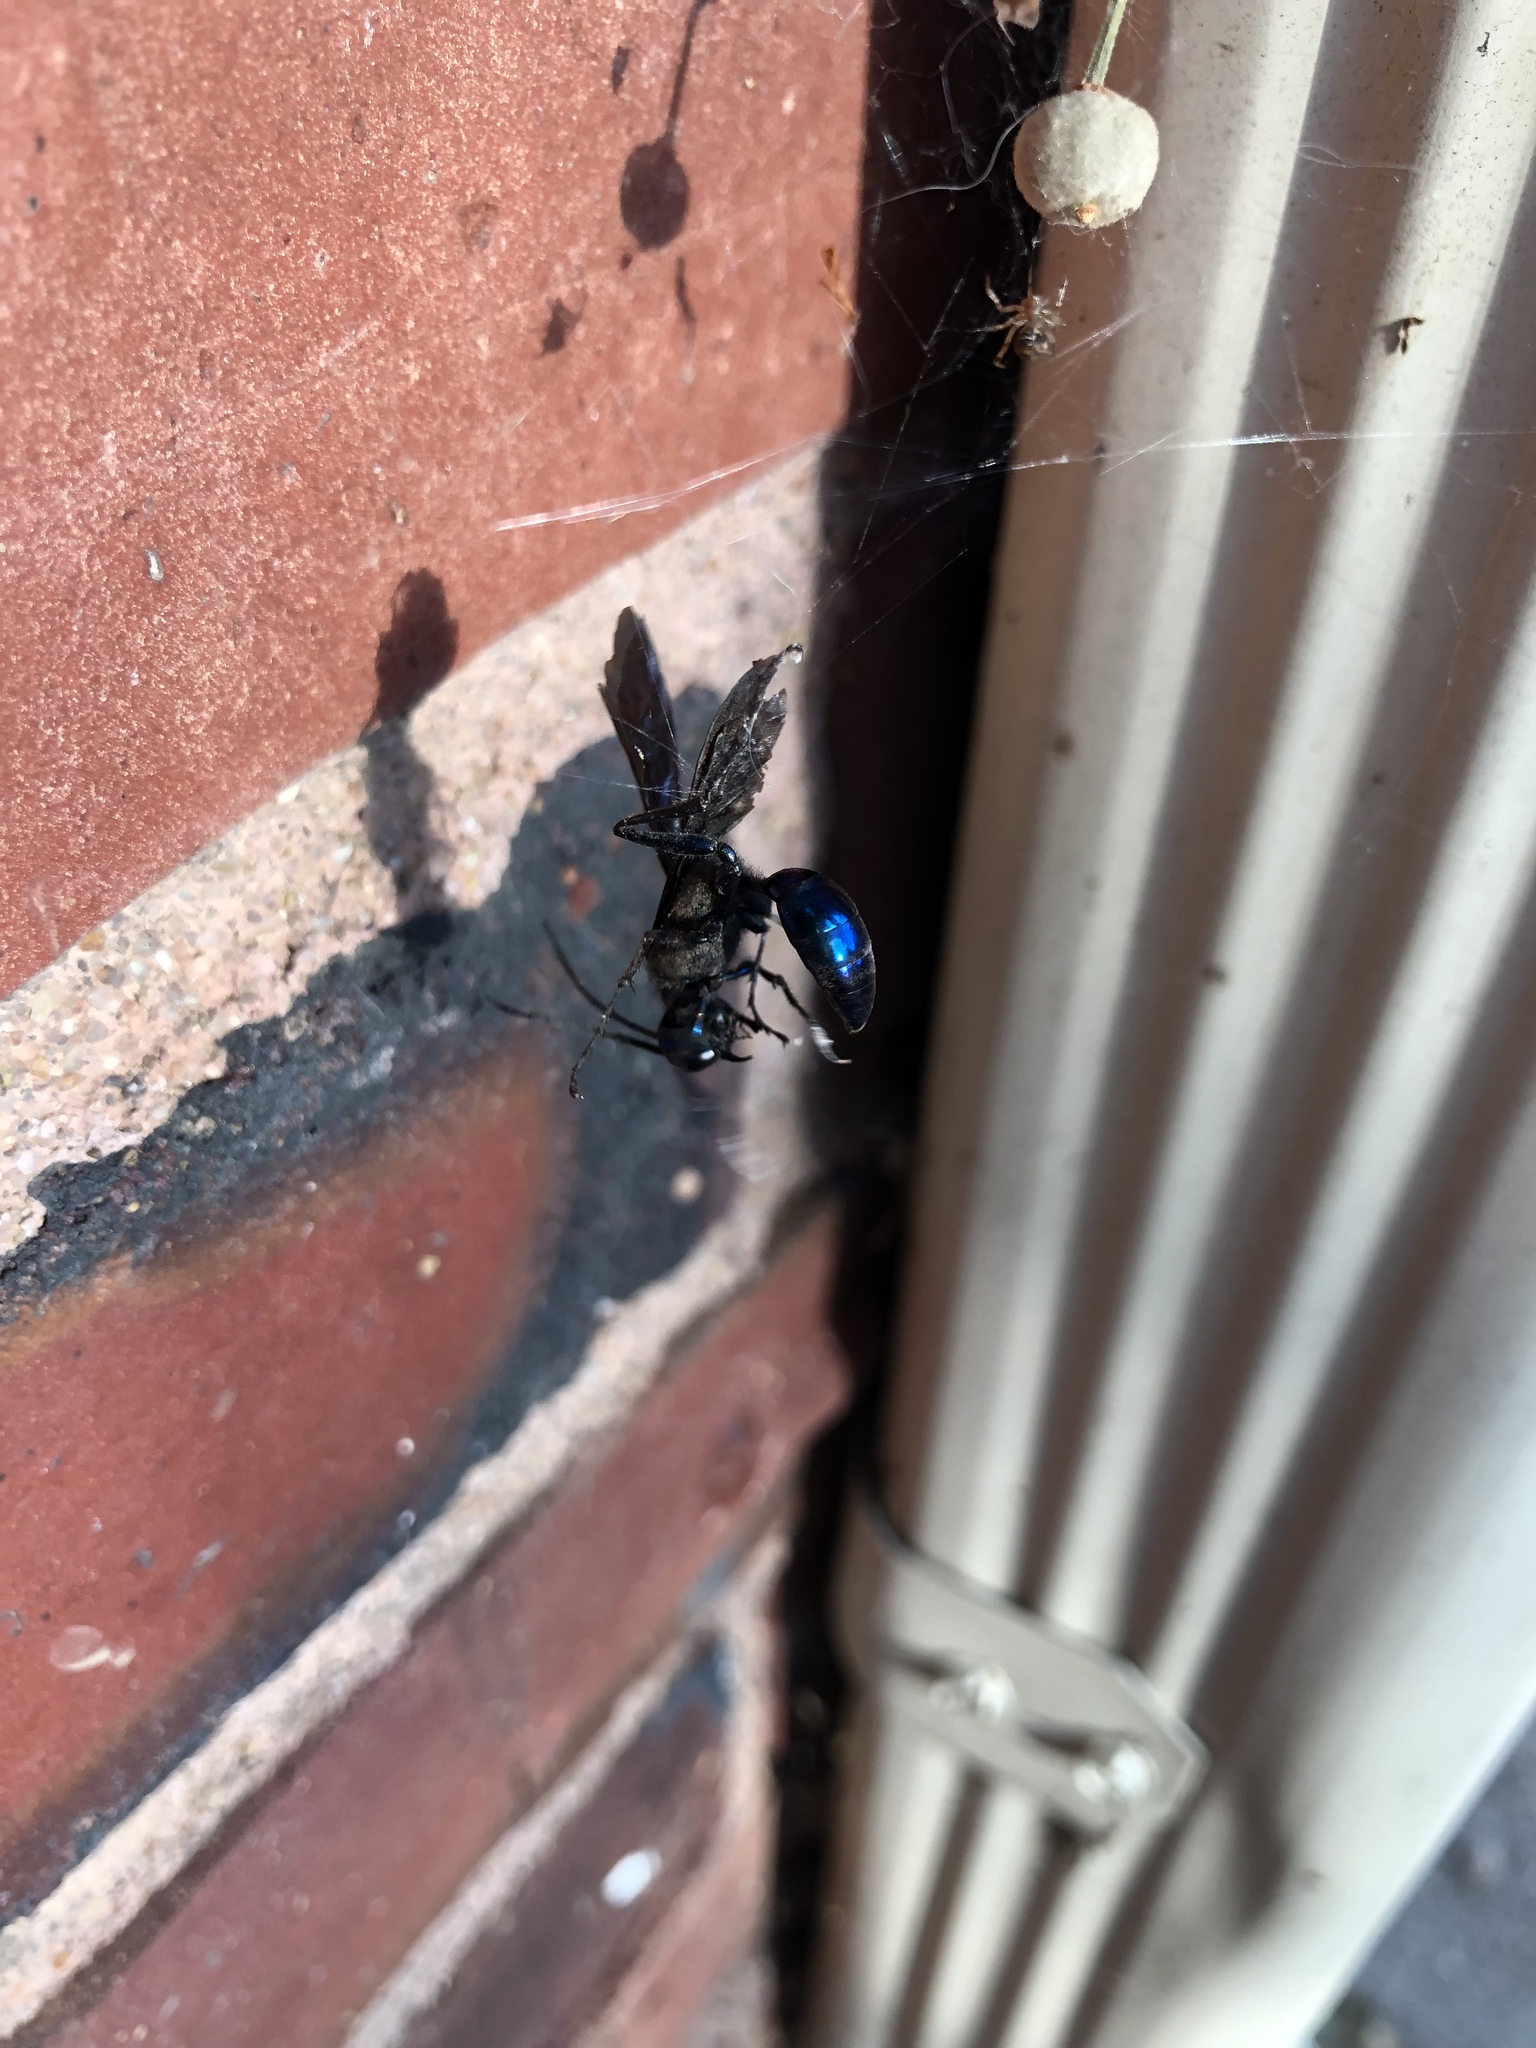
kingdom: Animalia
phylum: Arthropoda
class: Insecta
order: Hymenoptera
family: Sphecidae
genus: Chalybion
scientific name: Chalybion californicum
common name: Mud dauber
